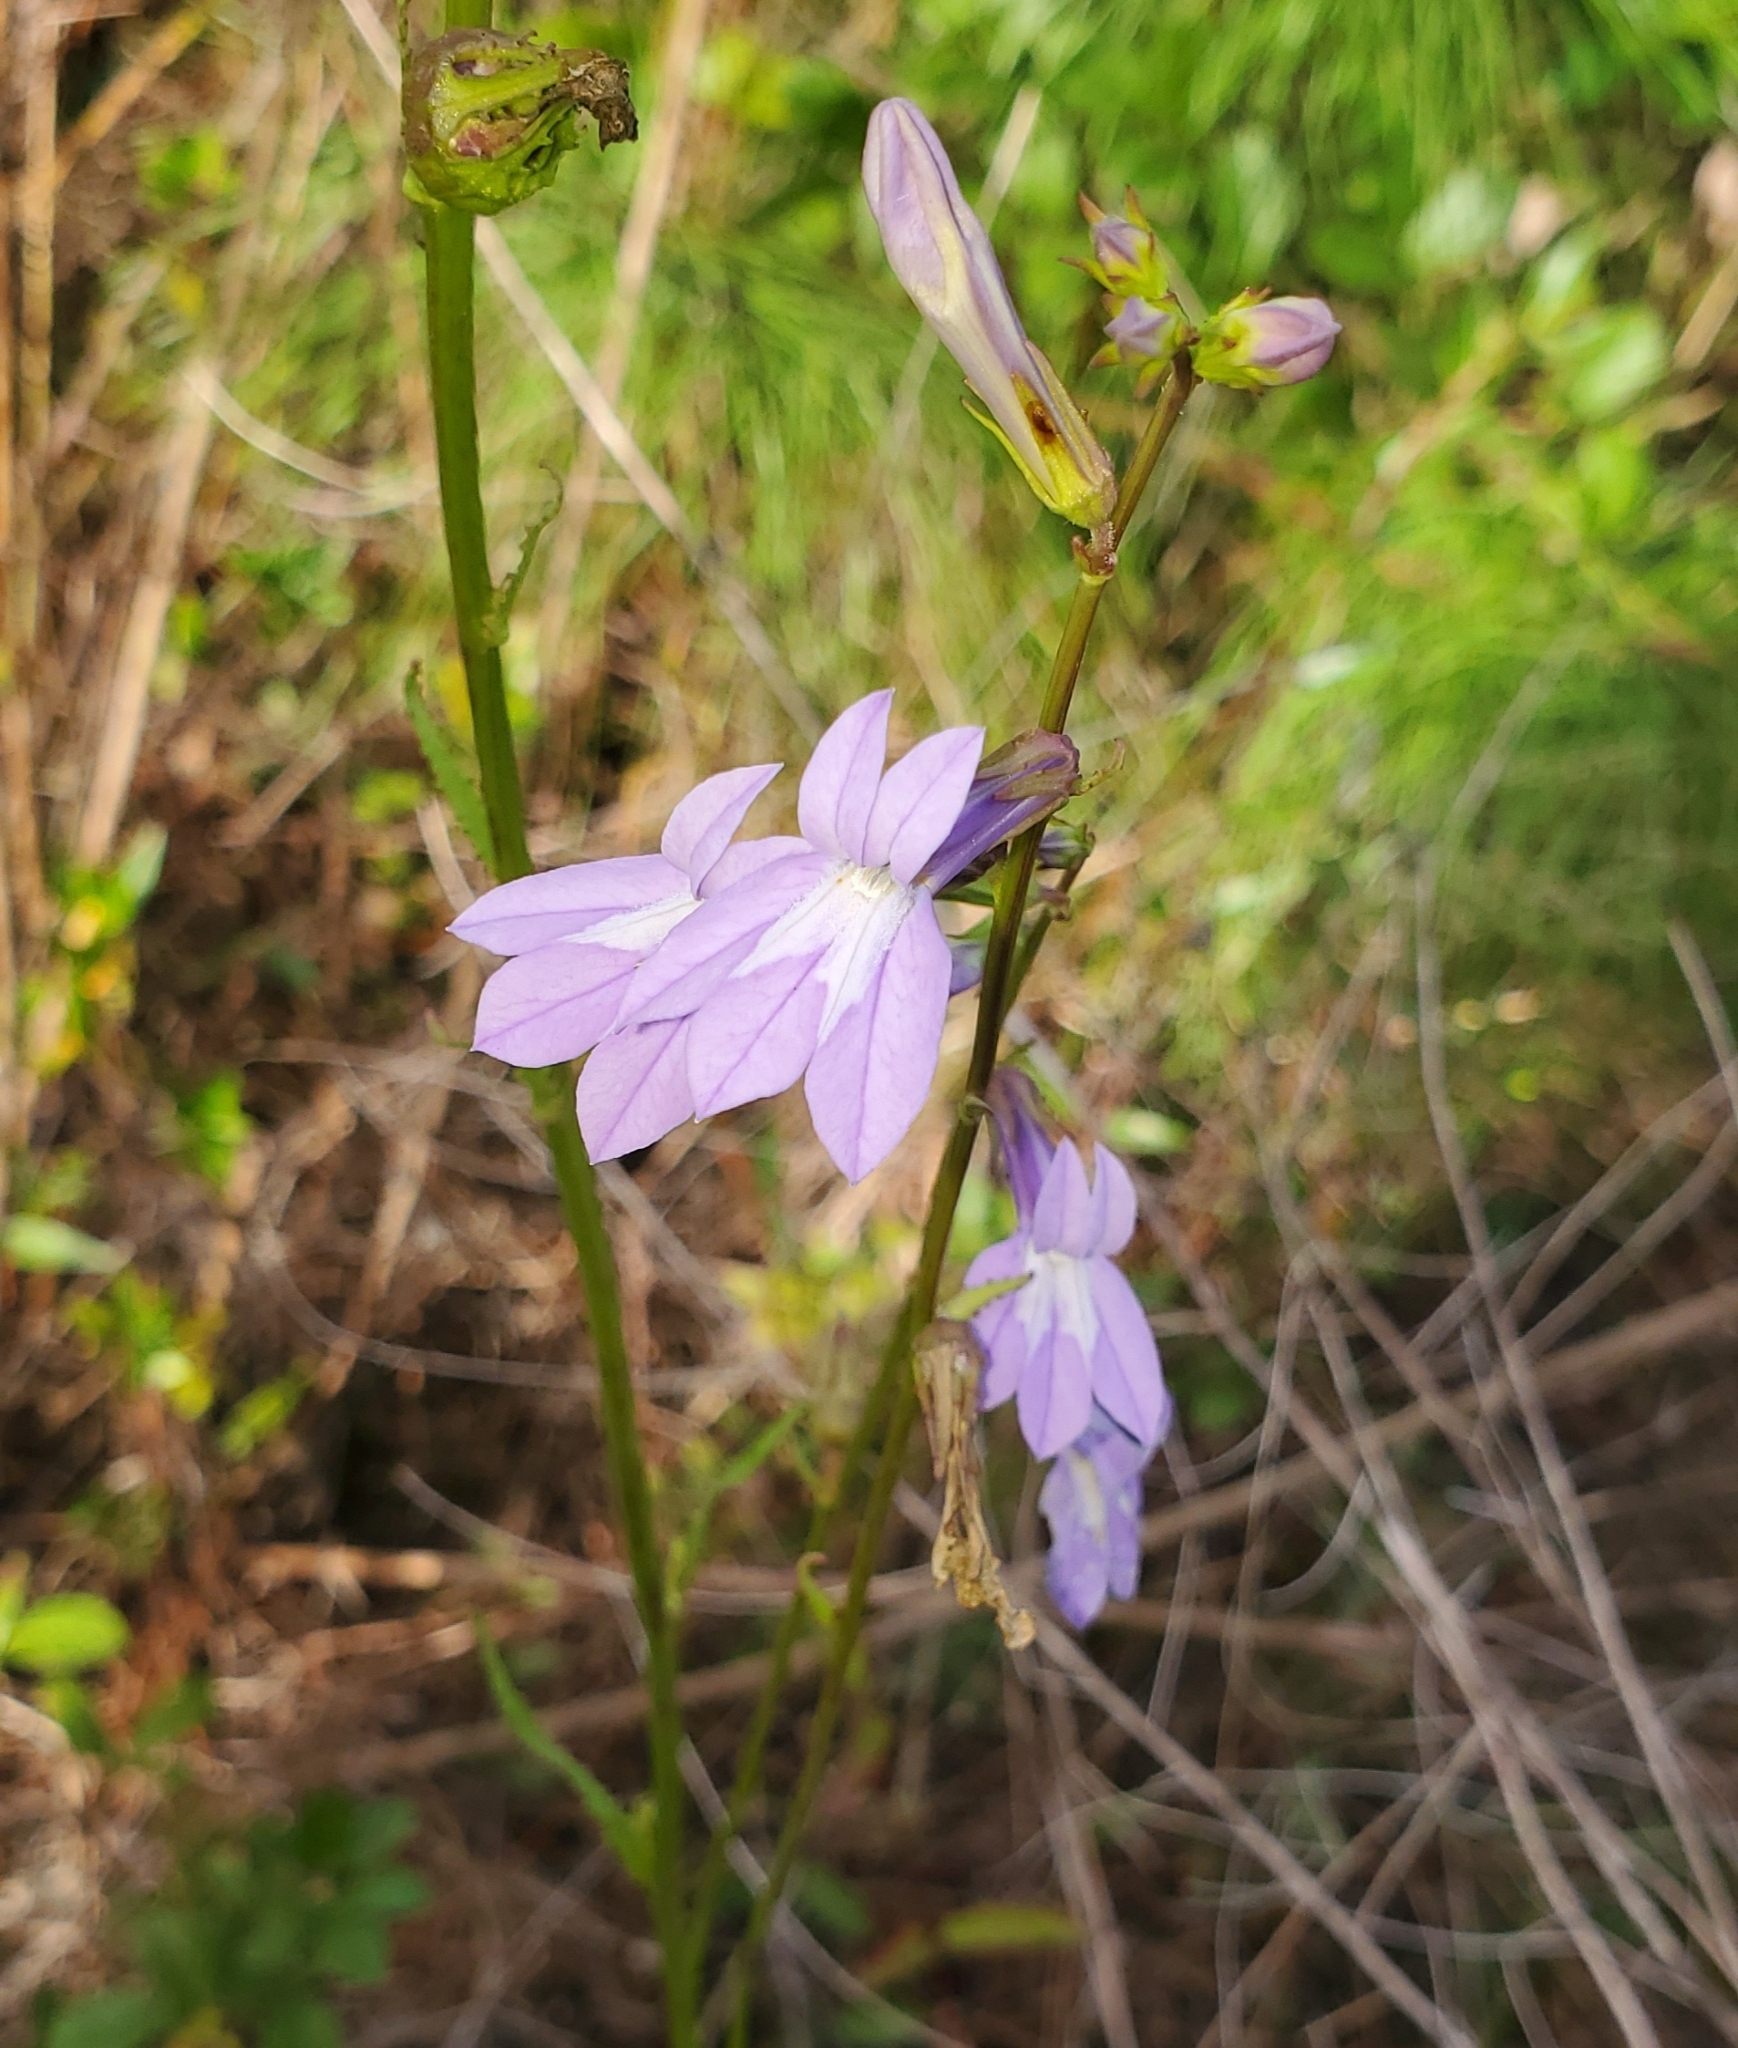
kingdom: Plantae
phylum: Tracheophyta
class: Magnoliopsida
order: Asterales
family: Campanulaceae
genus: Lobelia
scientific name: Lobelia glandulosa
